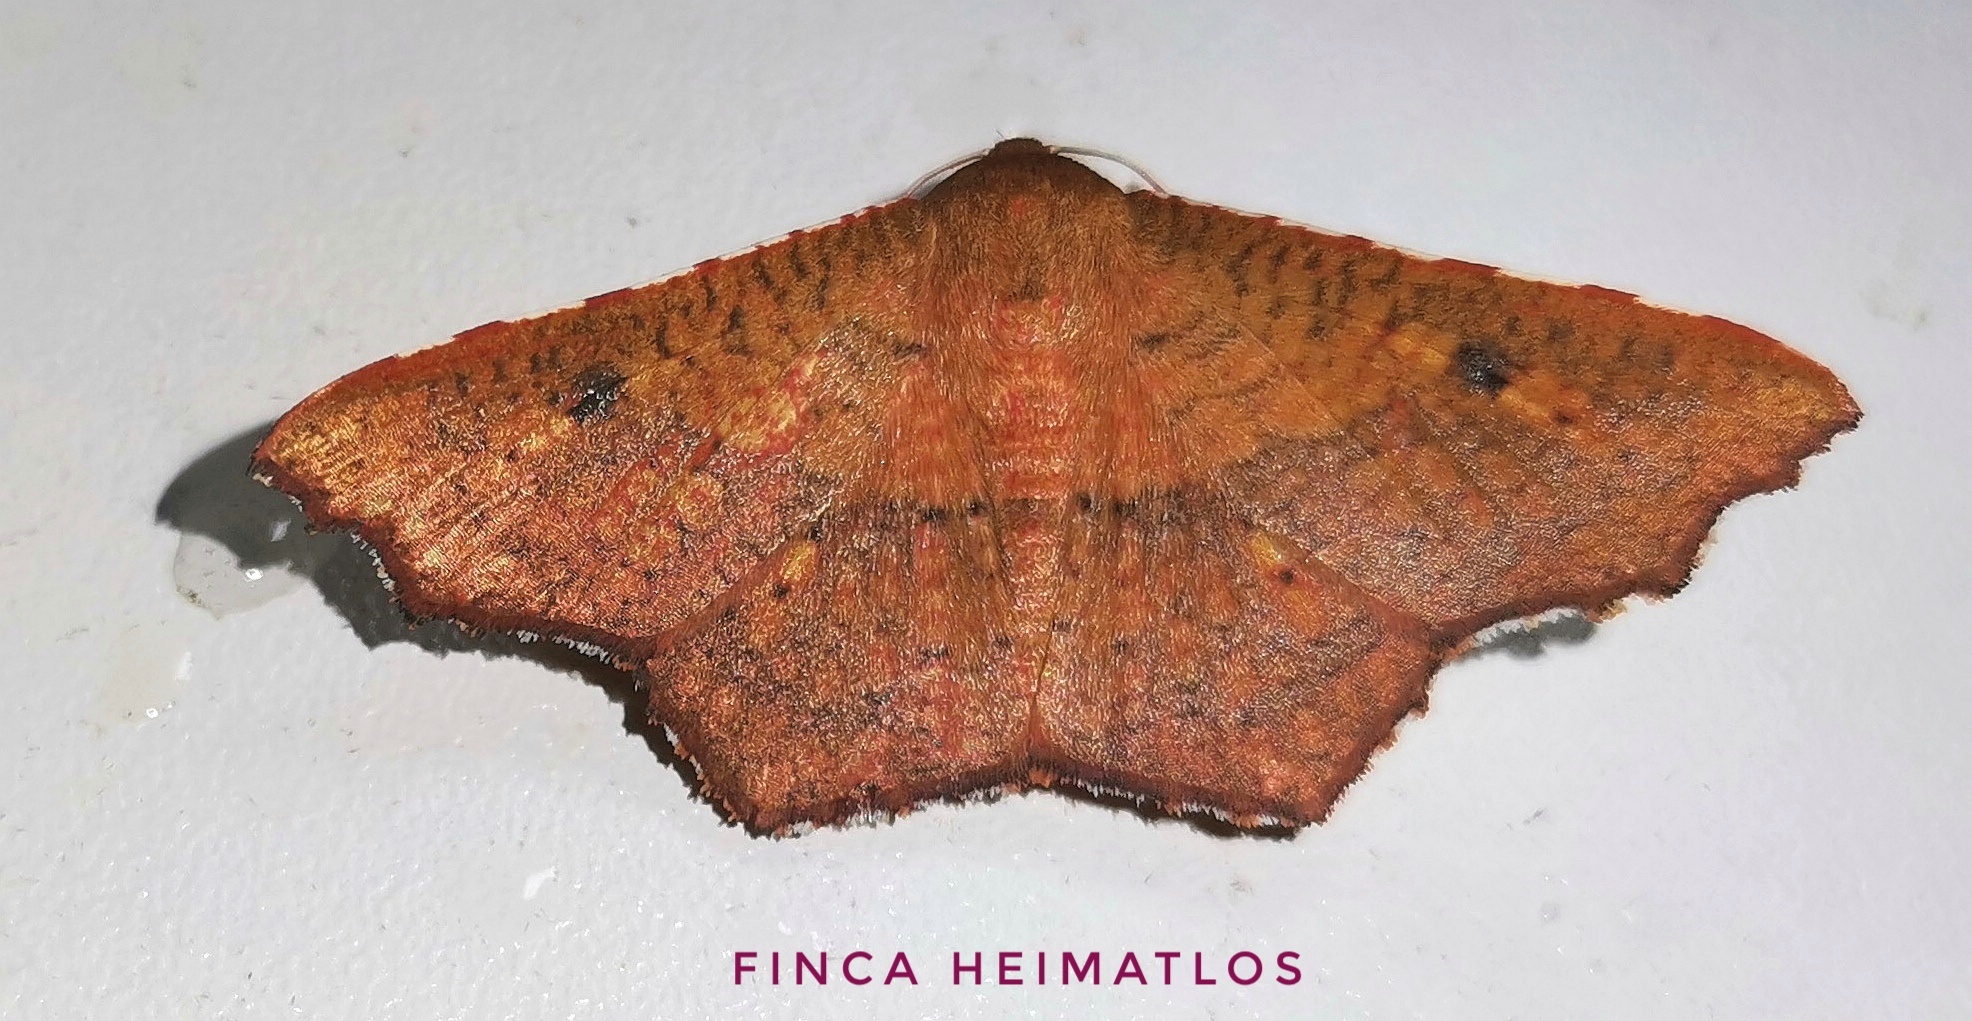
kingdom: Animalia
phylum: Arthropoda
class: Insecta
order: Lepidoptera
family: Thyrididae
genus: Rhodogonia
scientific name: Rhodogonia miniata
